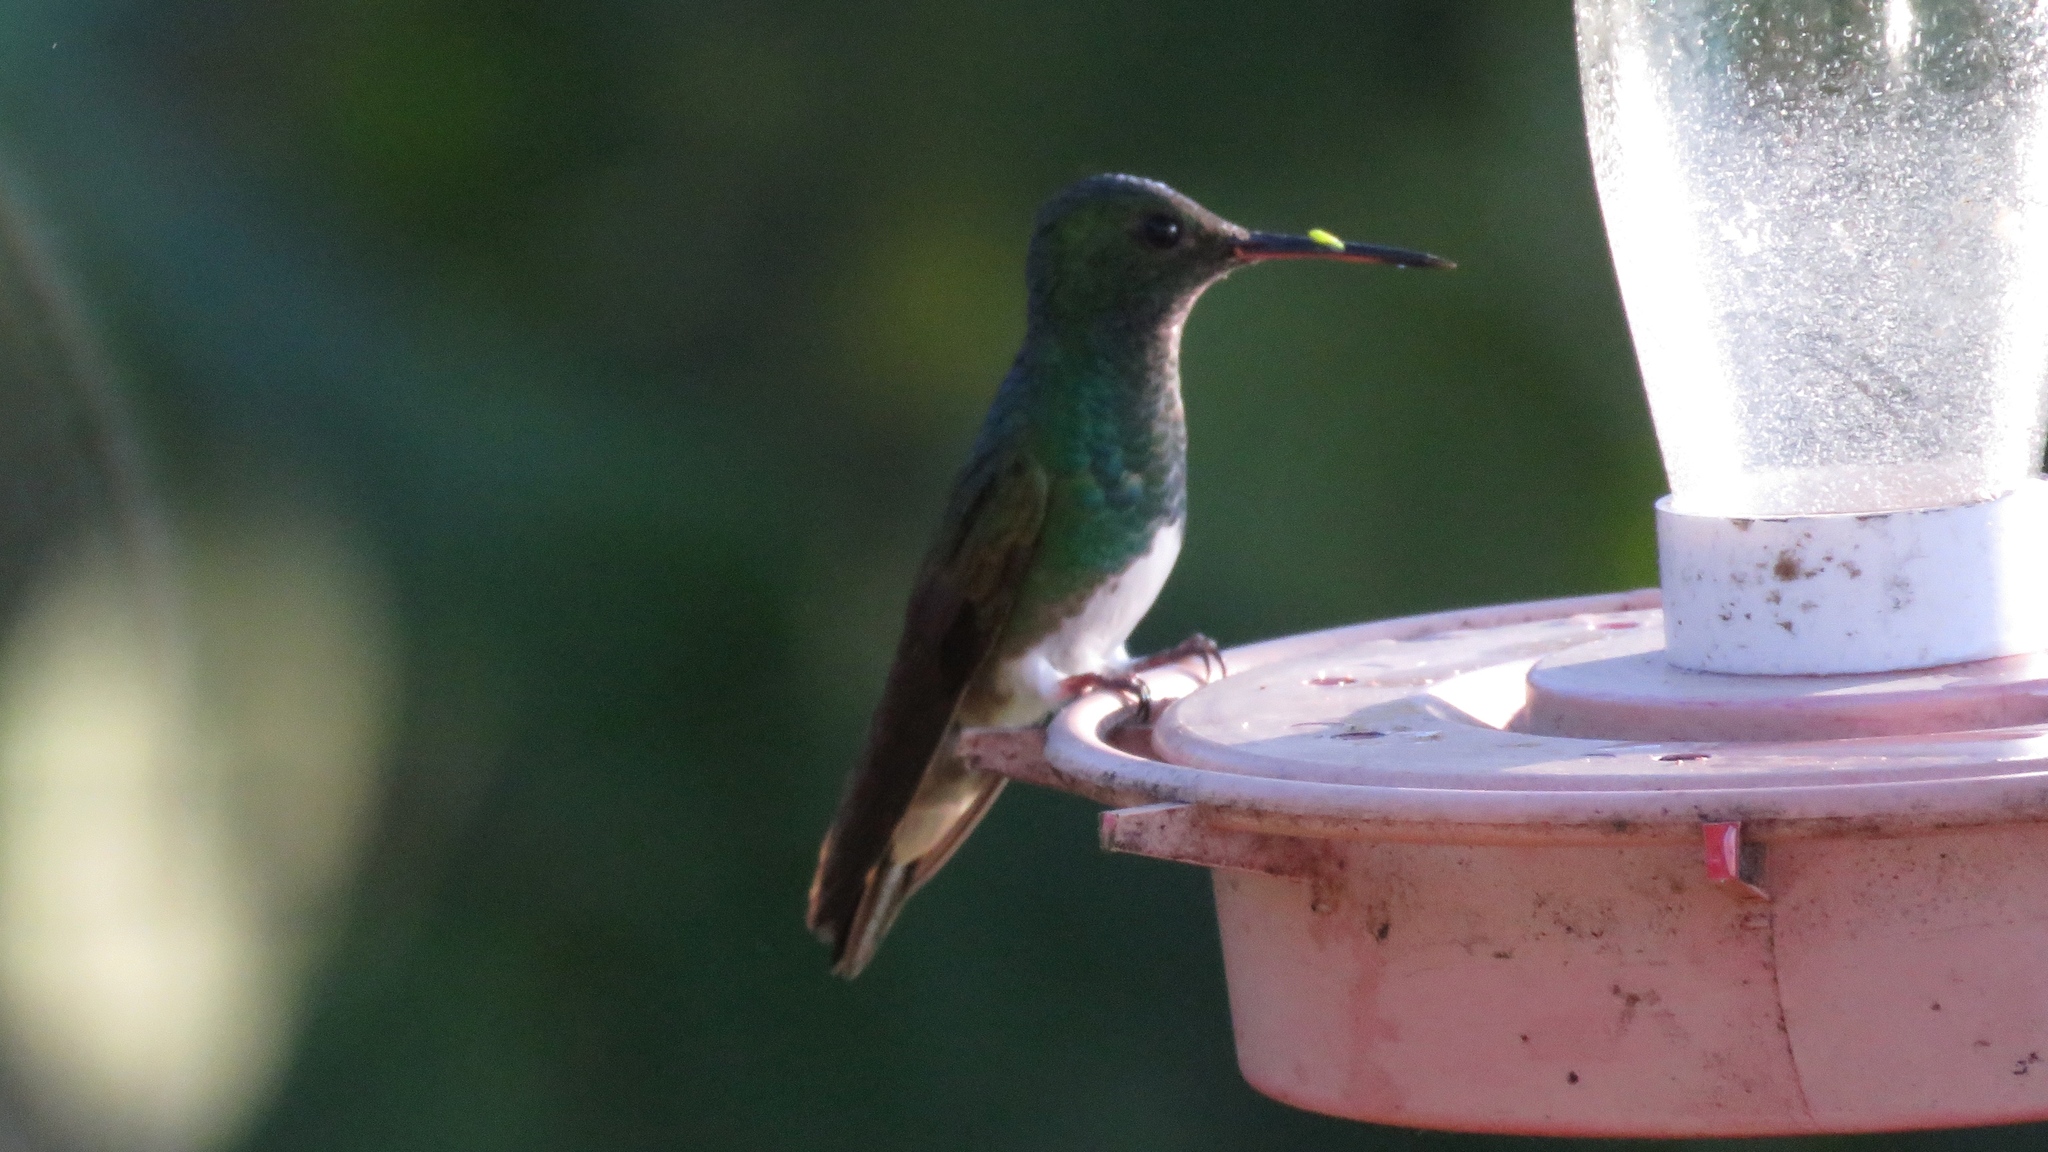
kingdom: Animalia
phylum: Chordata
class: Aves
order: Apodiformes
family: Trochilidae
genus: Saucerottia
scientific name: Saucerottia edward
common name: Snowy-bellied hummingbird
